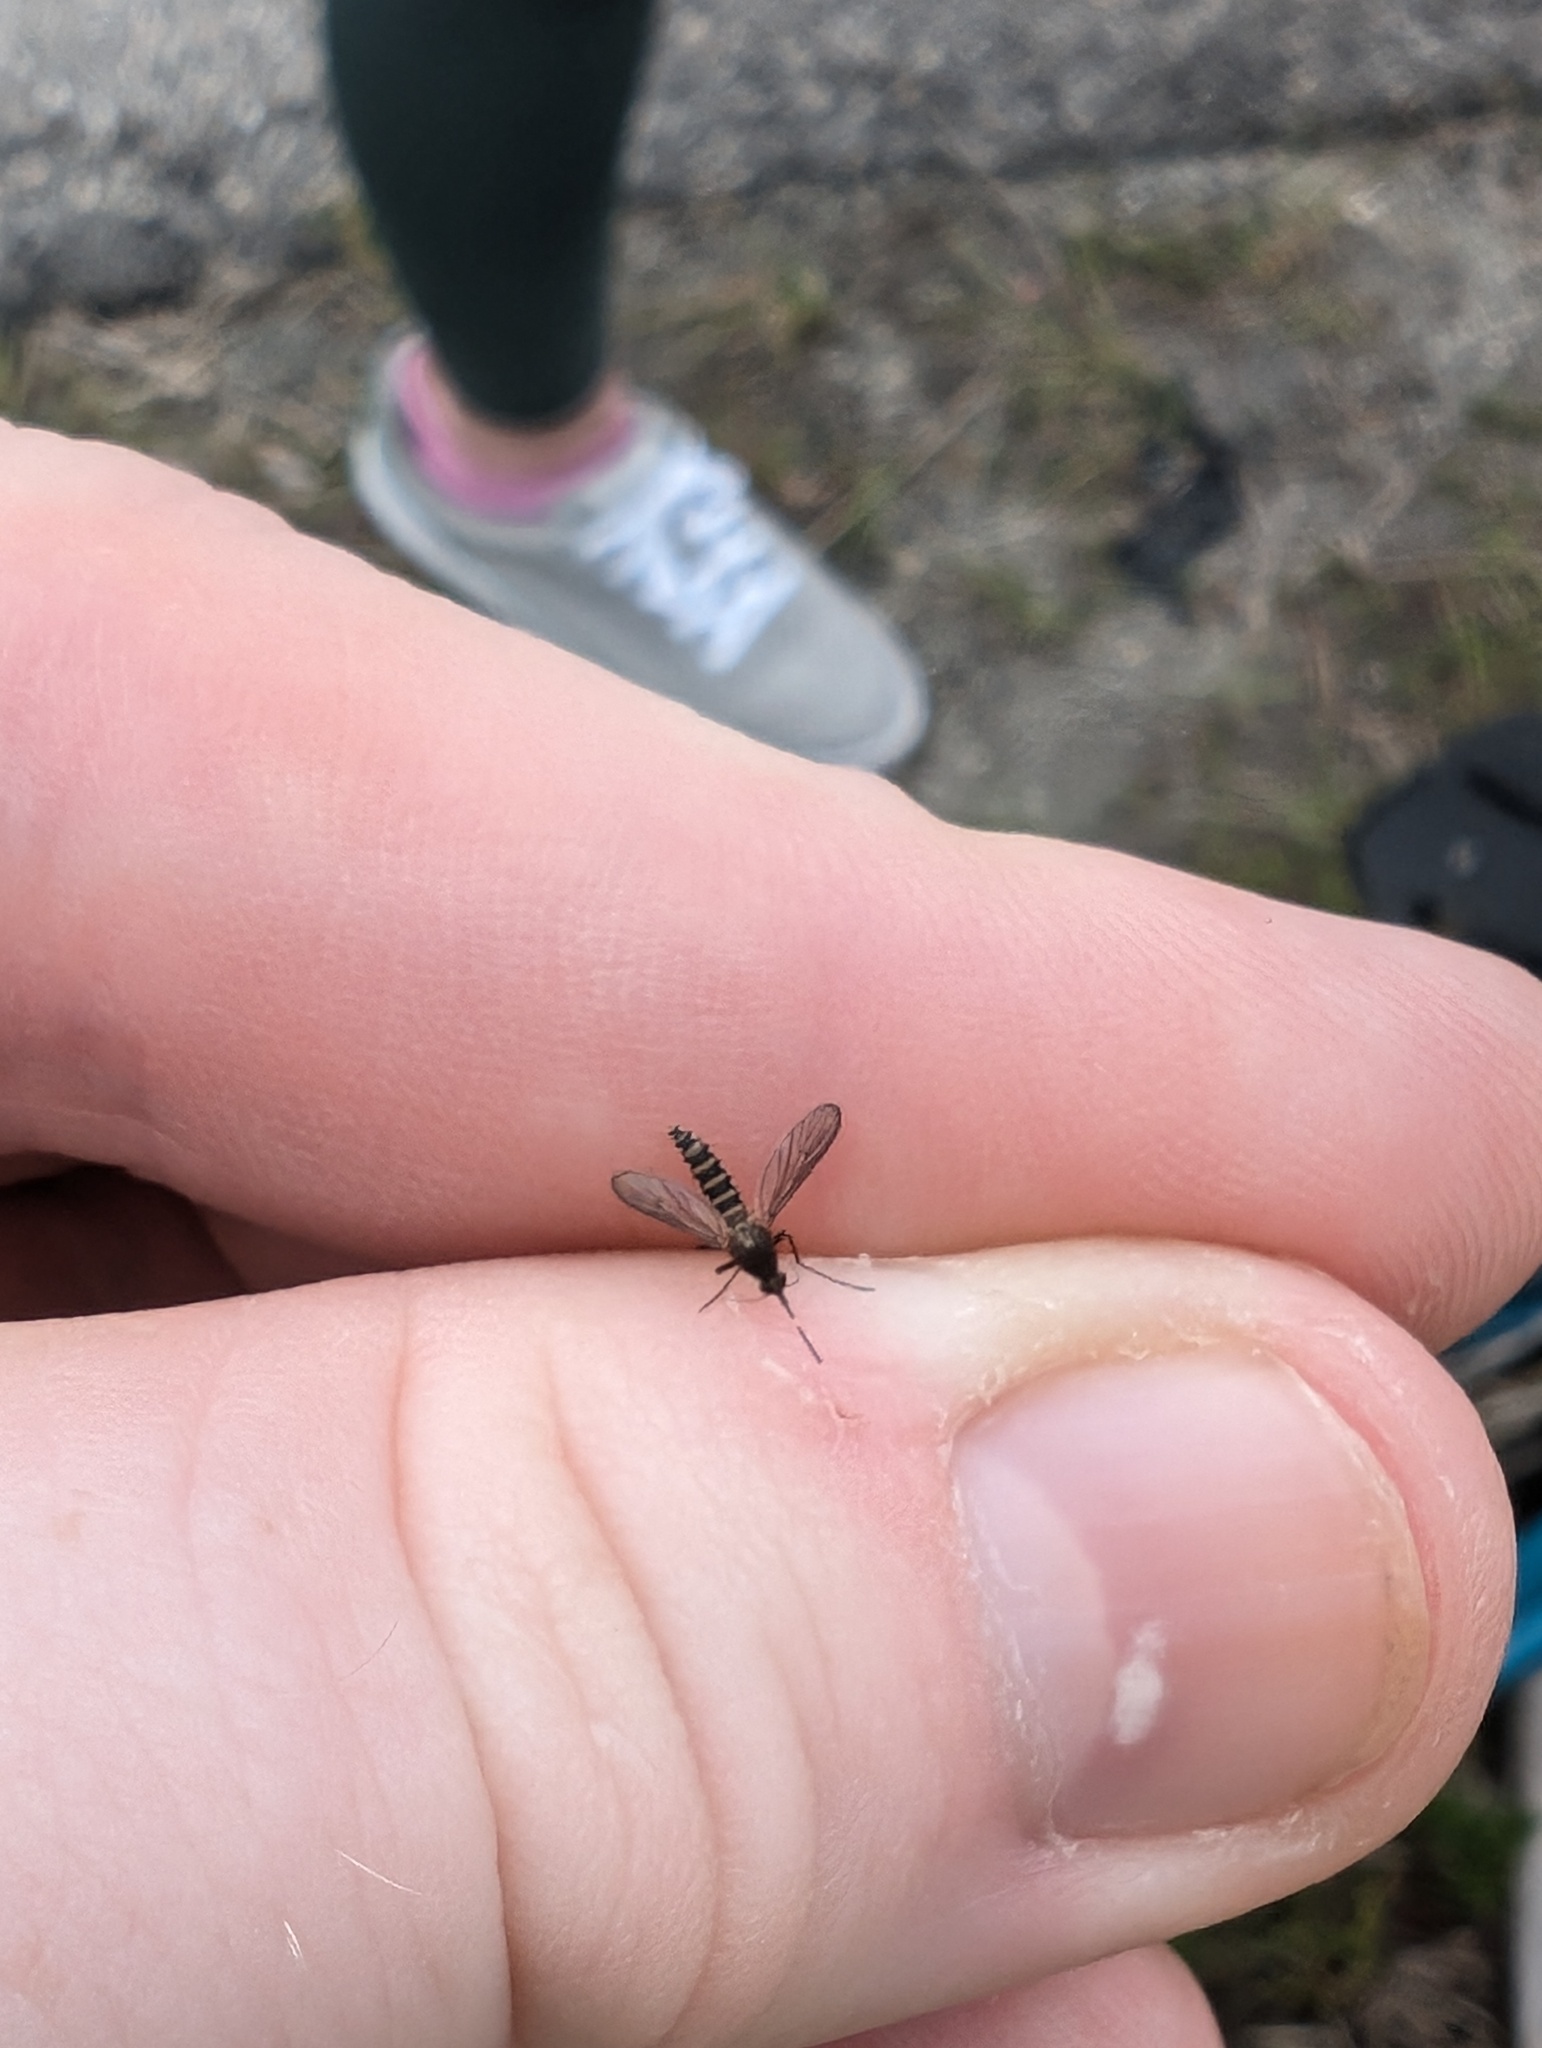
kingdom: Animalia
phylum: Arthropoda
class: Insecta
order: Diptera
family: Culicidae
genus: Aedes
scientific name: Aedes taeniorhynchus
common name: Black salt marsh mosquito
